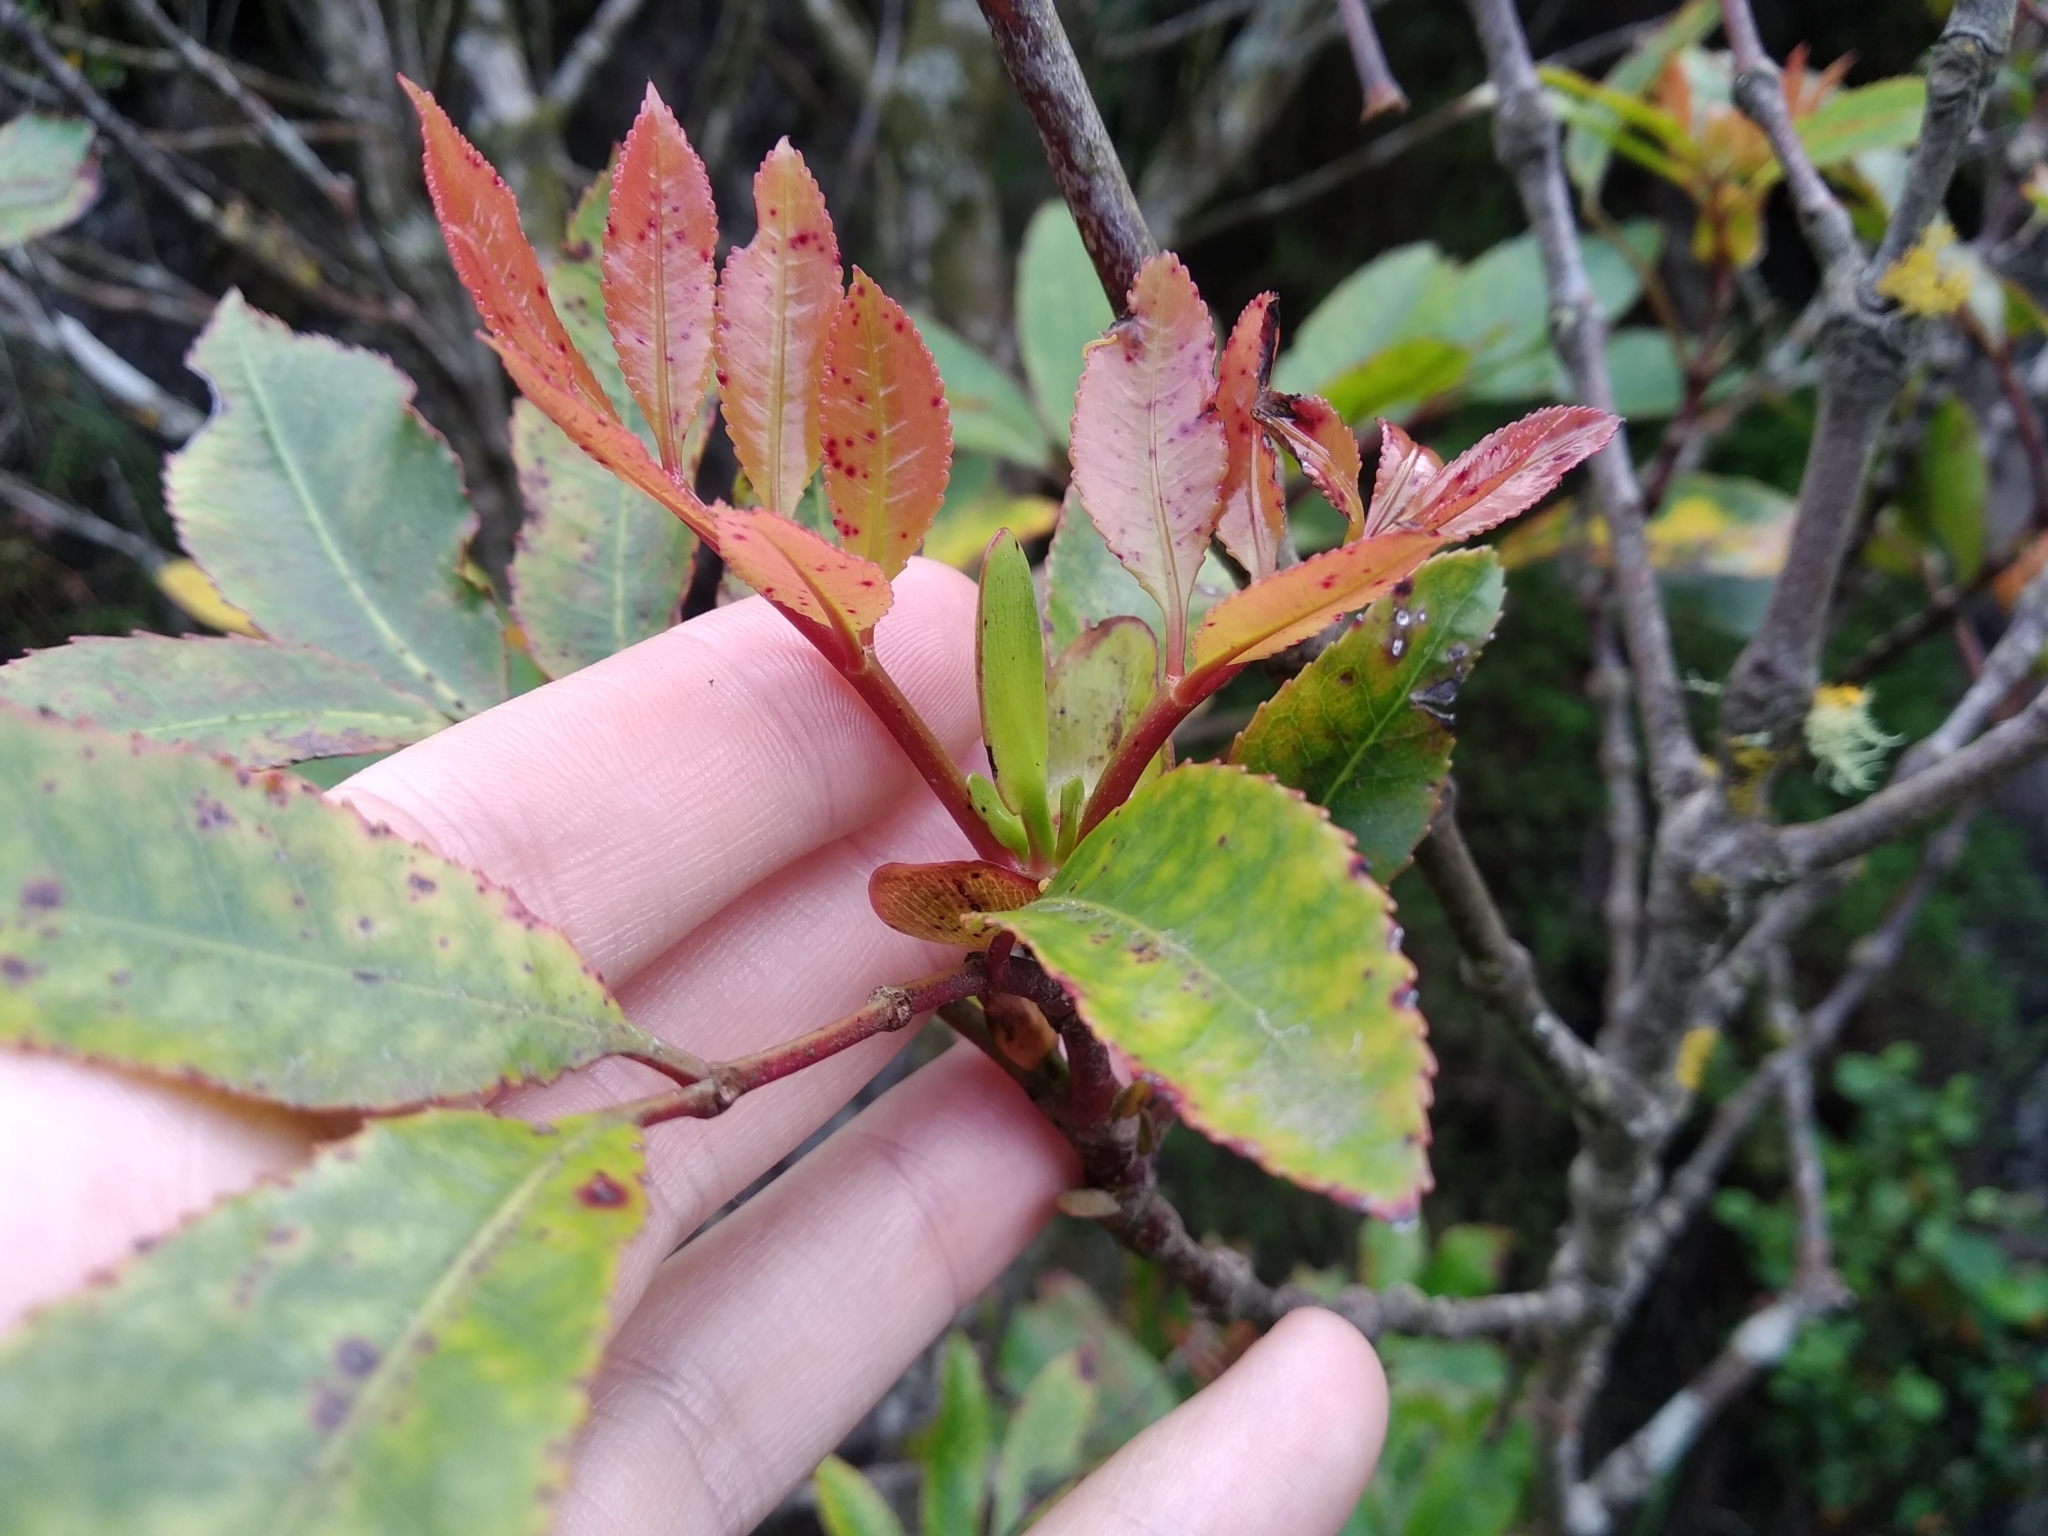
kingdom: Plantae
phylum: Tracheophyta
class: Magnoliopsida
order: Oxalidales
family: Cunoniaceae
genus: Cunonia
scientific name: Cunonia capensis
